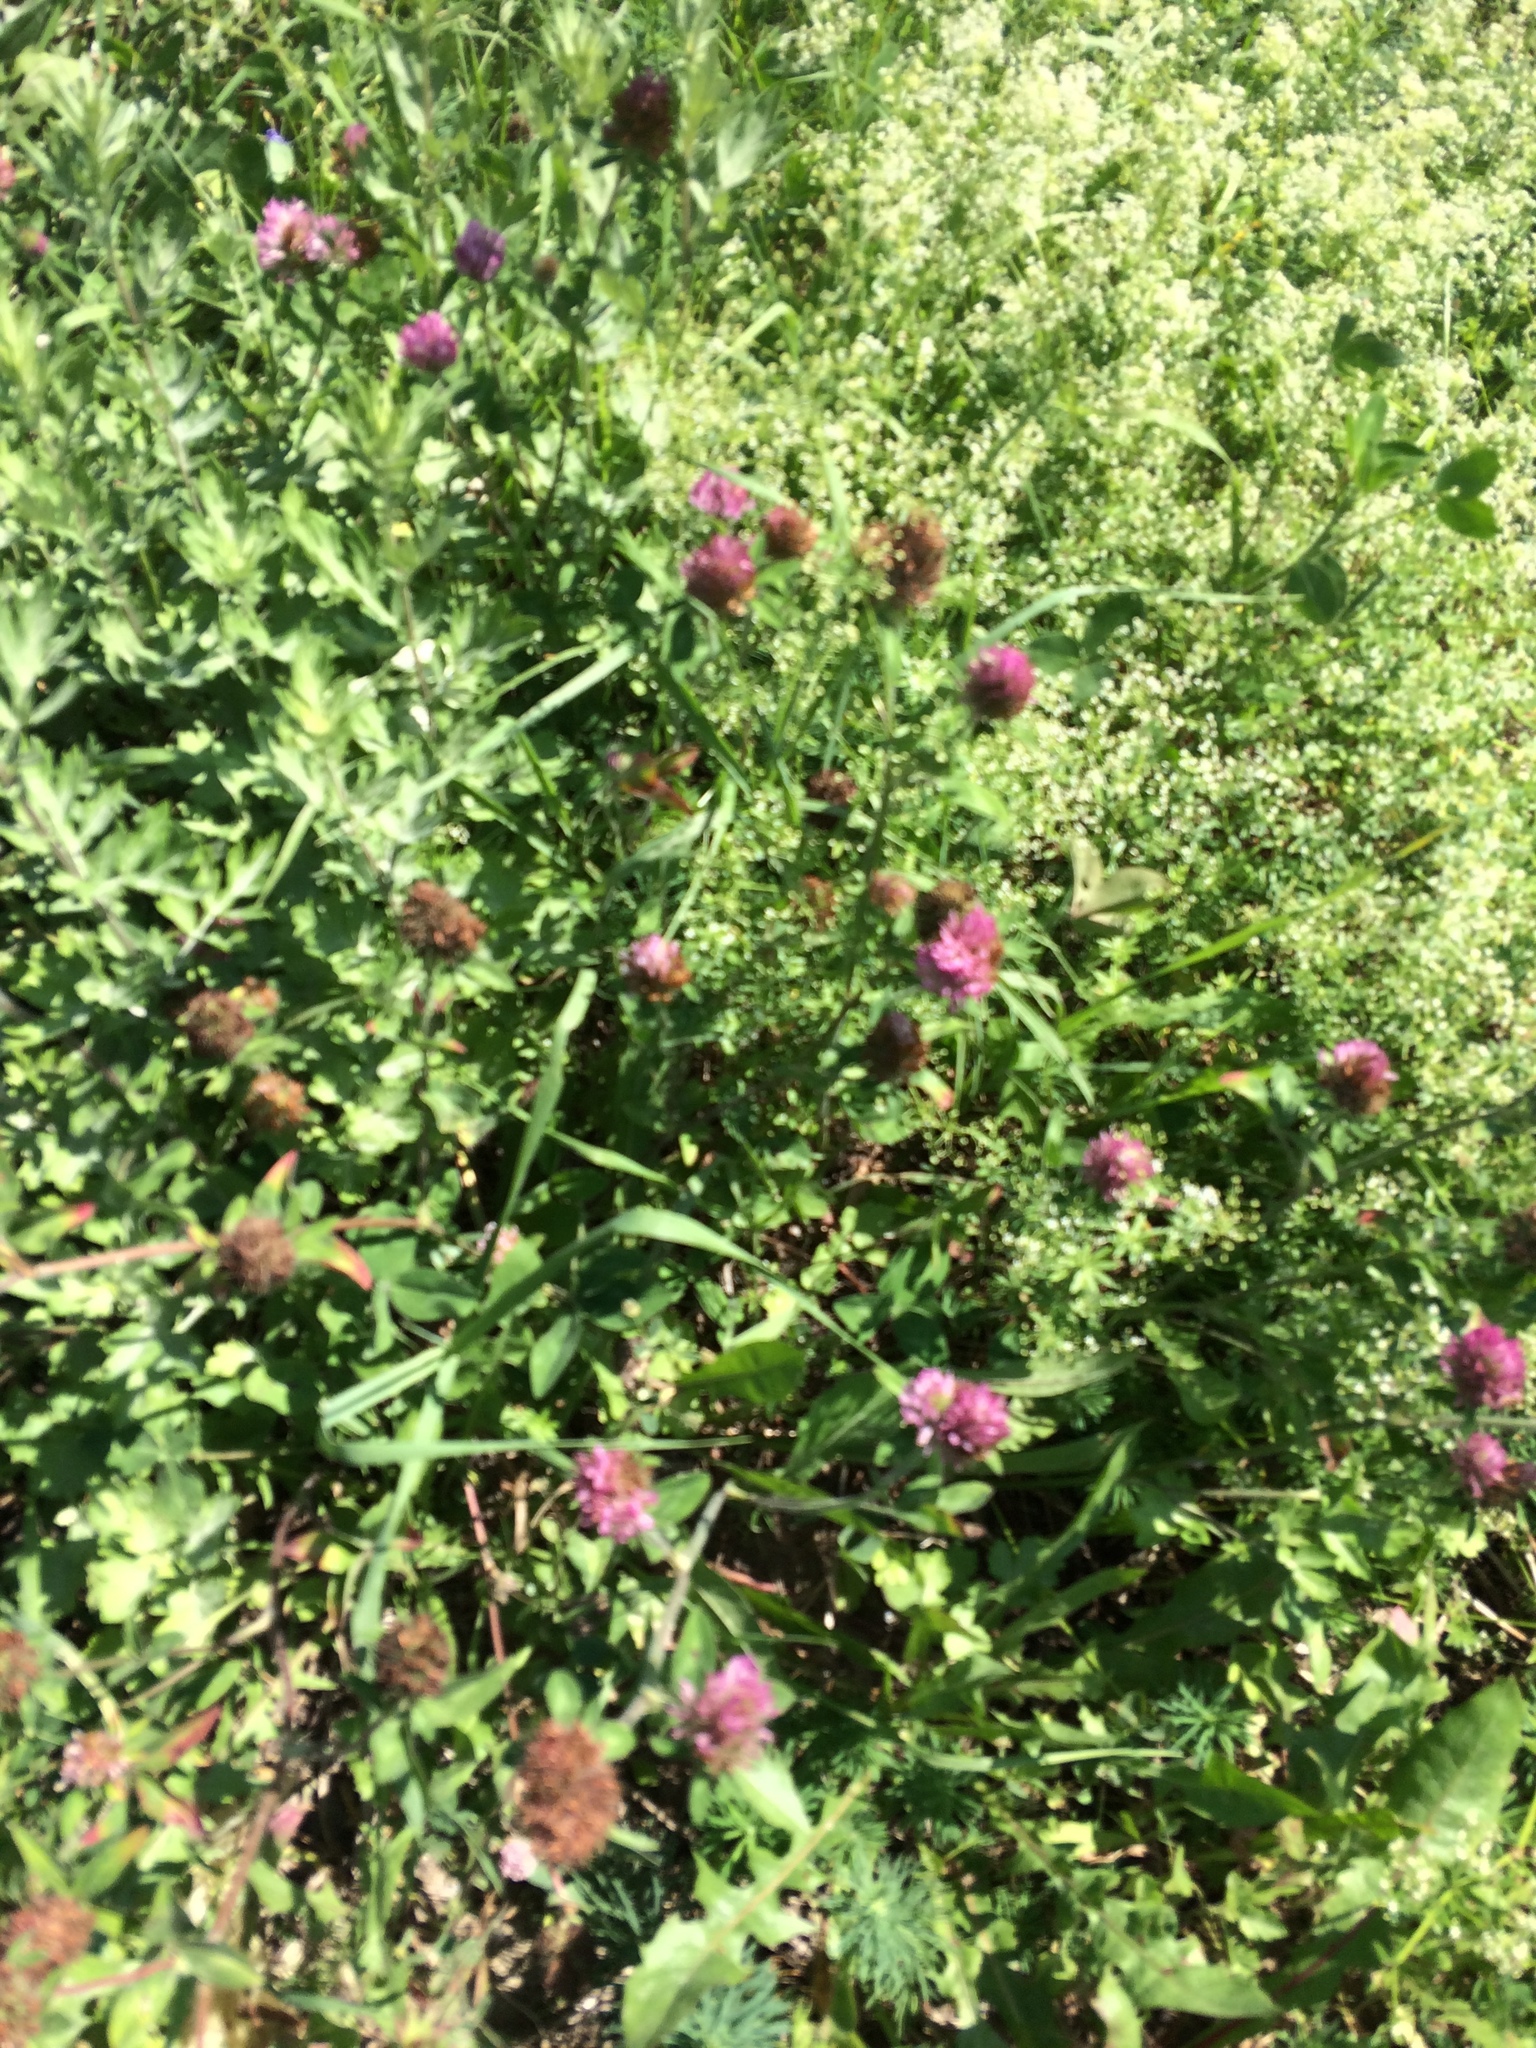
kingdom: Plantae
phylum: Tracheophyta
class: Magnoliopsida
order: Fabales
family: Fabaceae
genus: Trifolium
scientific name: Trifolium pratense
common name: Red clover
